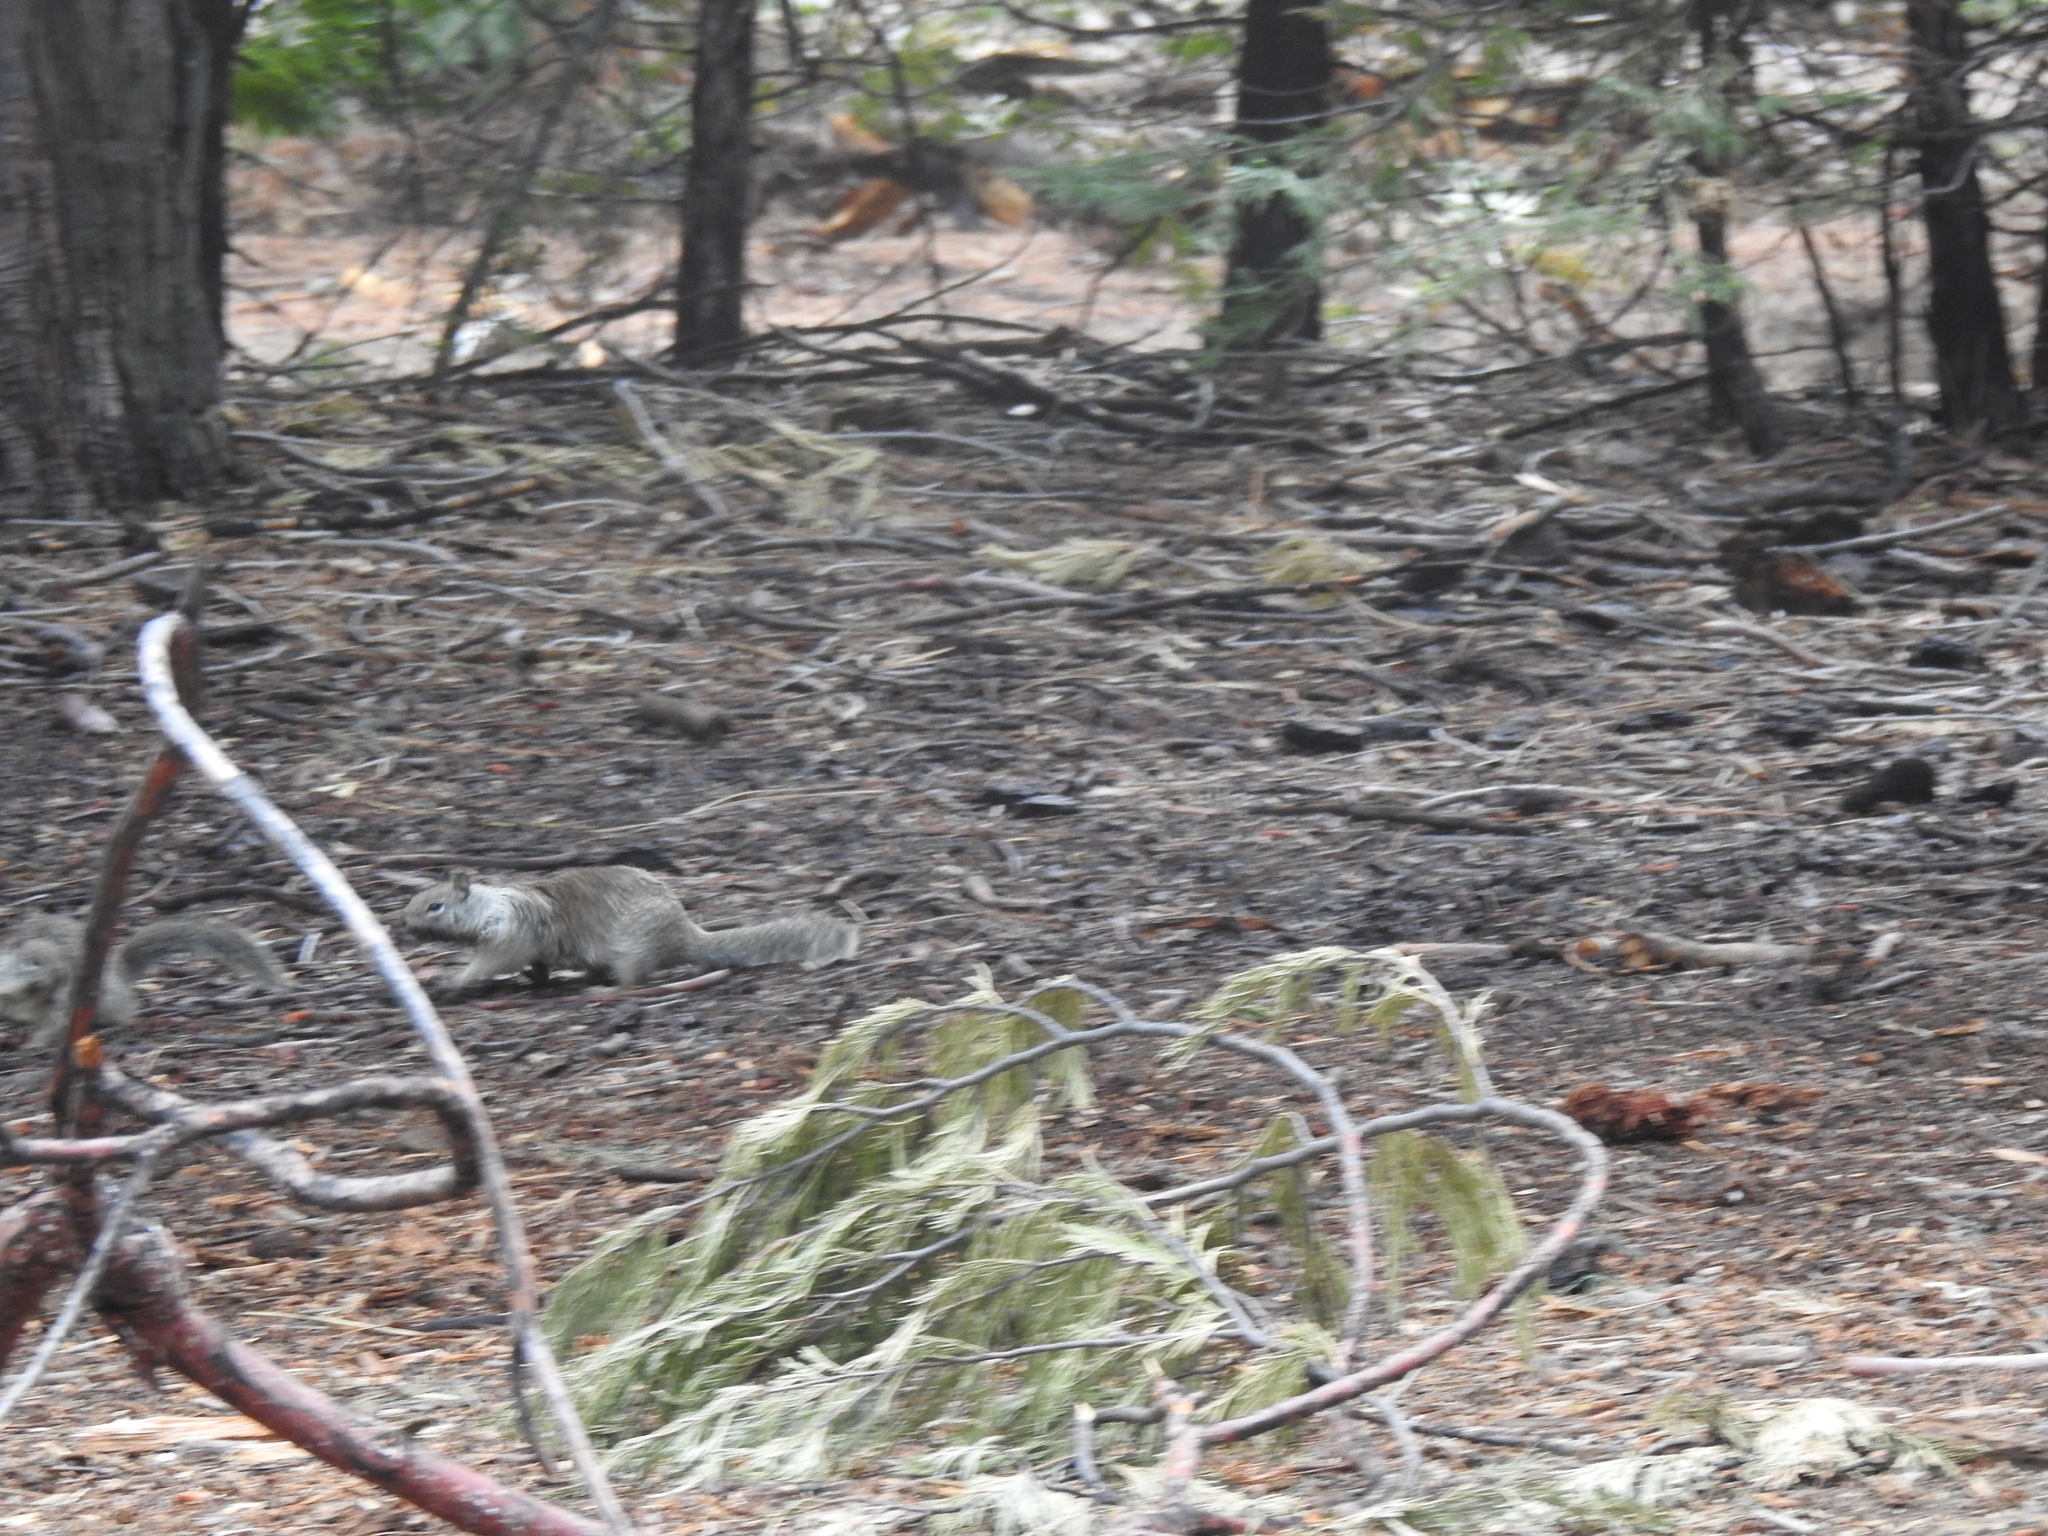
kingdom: Animalia
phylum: Chordata
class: Mammalia
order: Rodentia
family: Sciuridae
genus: Otospermophilus
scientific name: Otospermophilus beecheyi
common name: California ground squirrel
